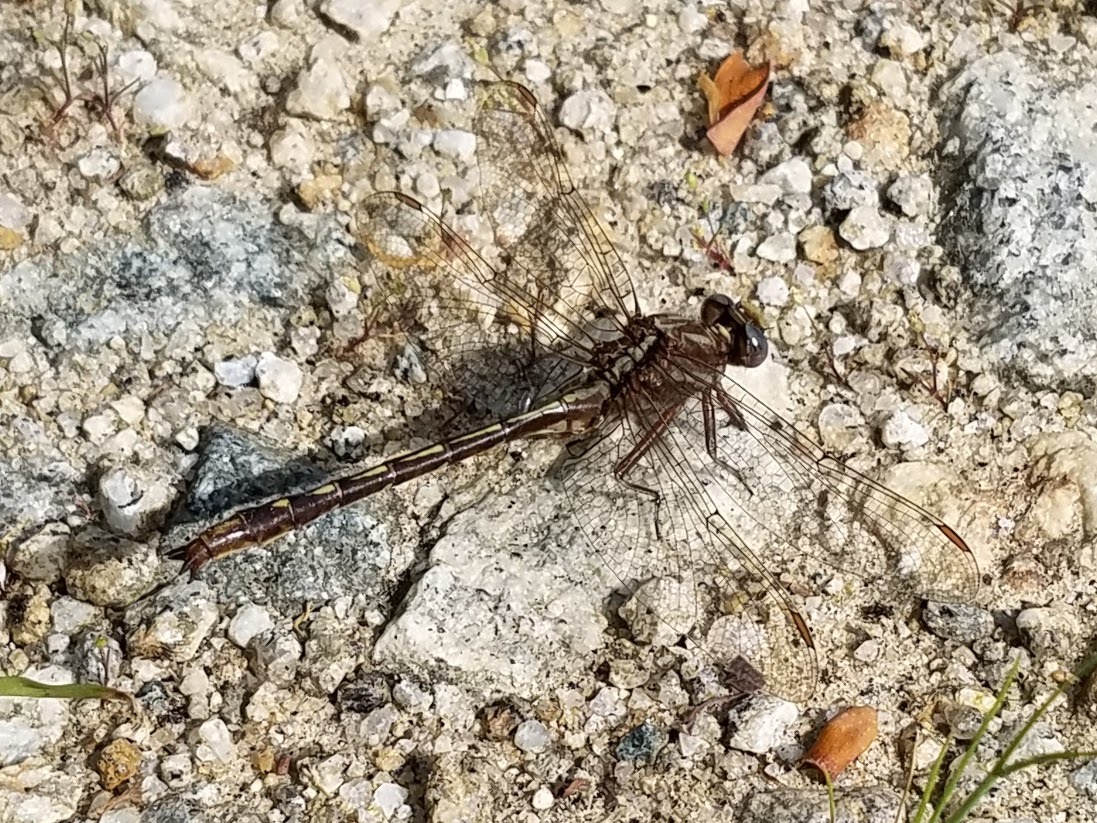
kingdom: Animalia
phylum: Arthropoda
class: Insecta
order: Odonata
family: Gomphidae
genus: Phanogomphus
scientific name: Phanogomphus lividus
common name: Ashy clubtail
